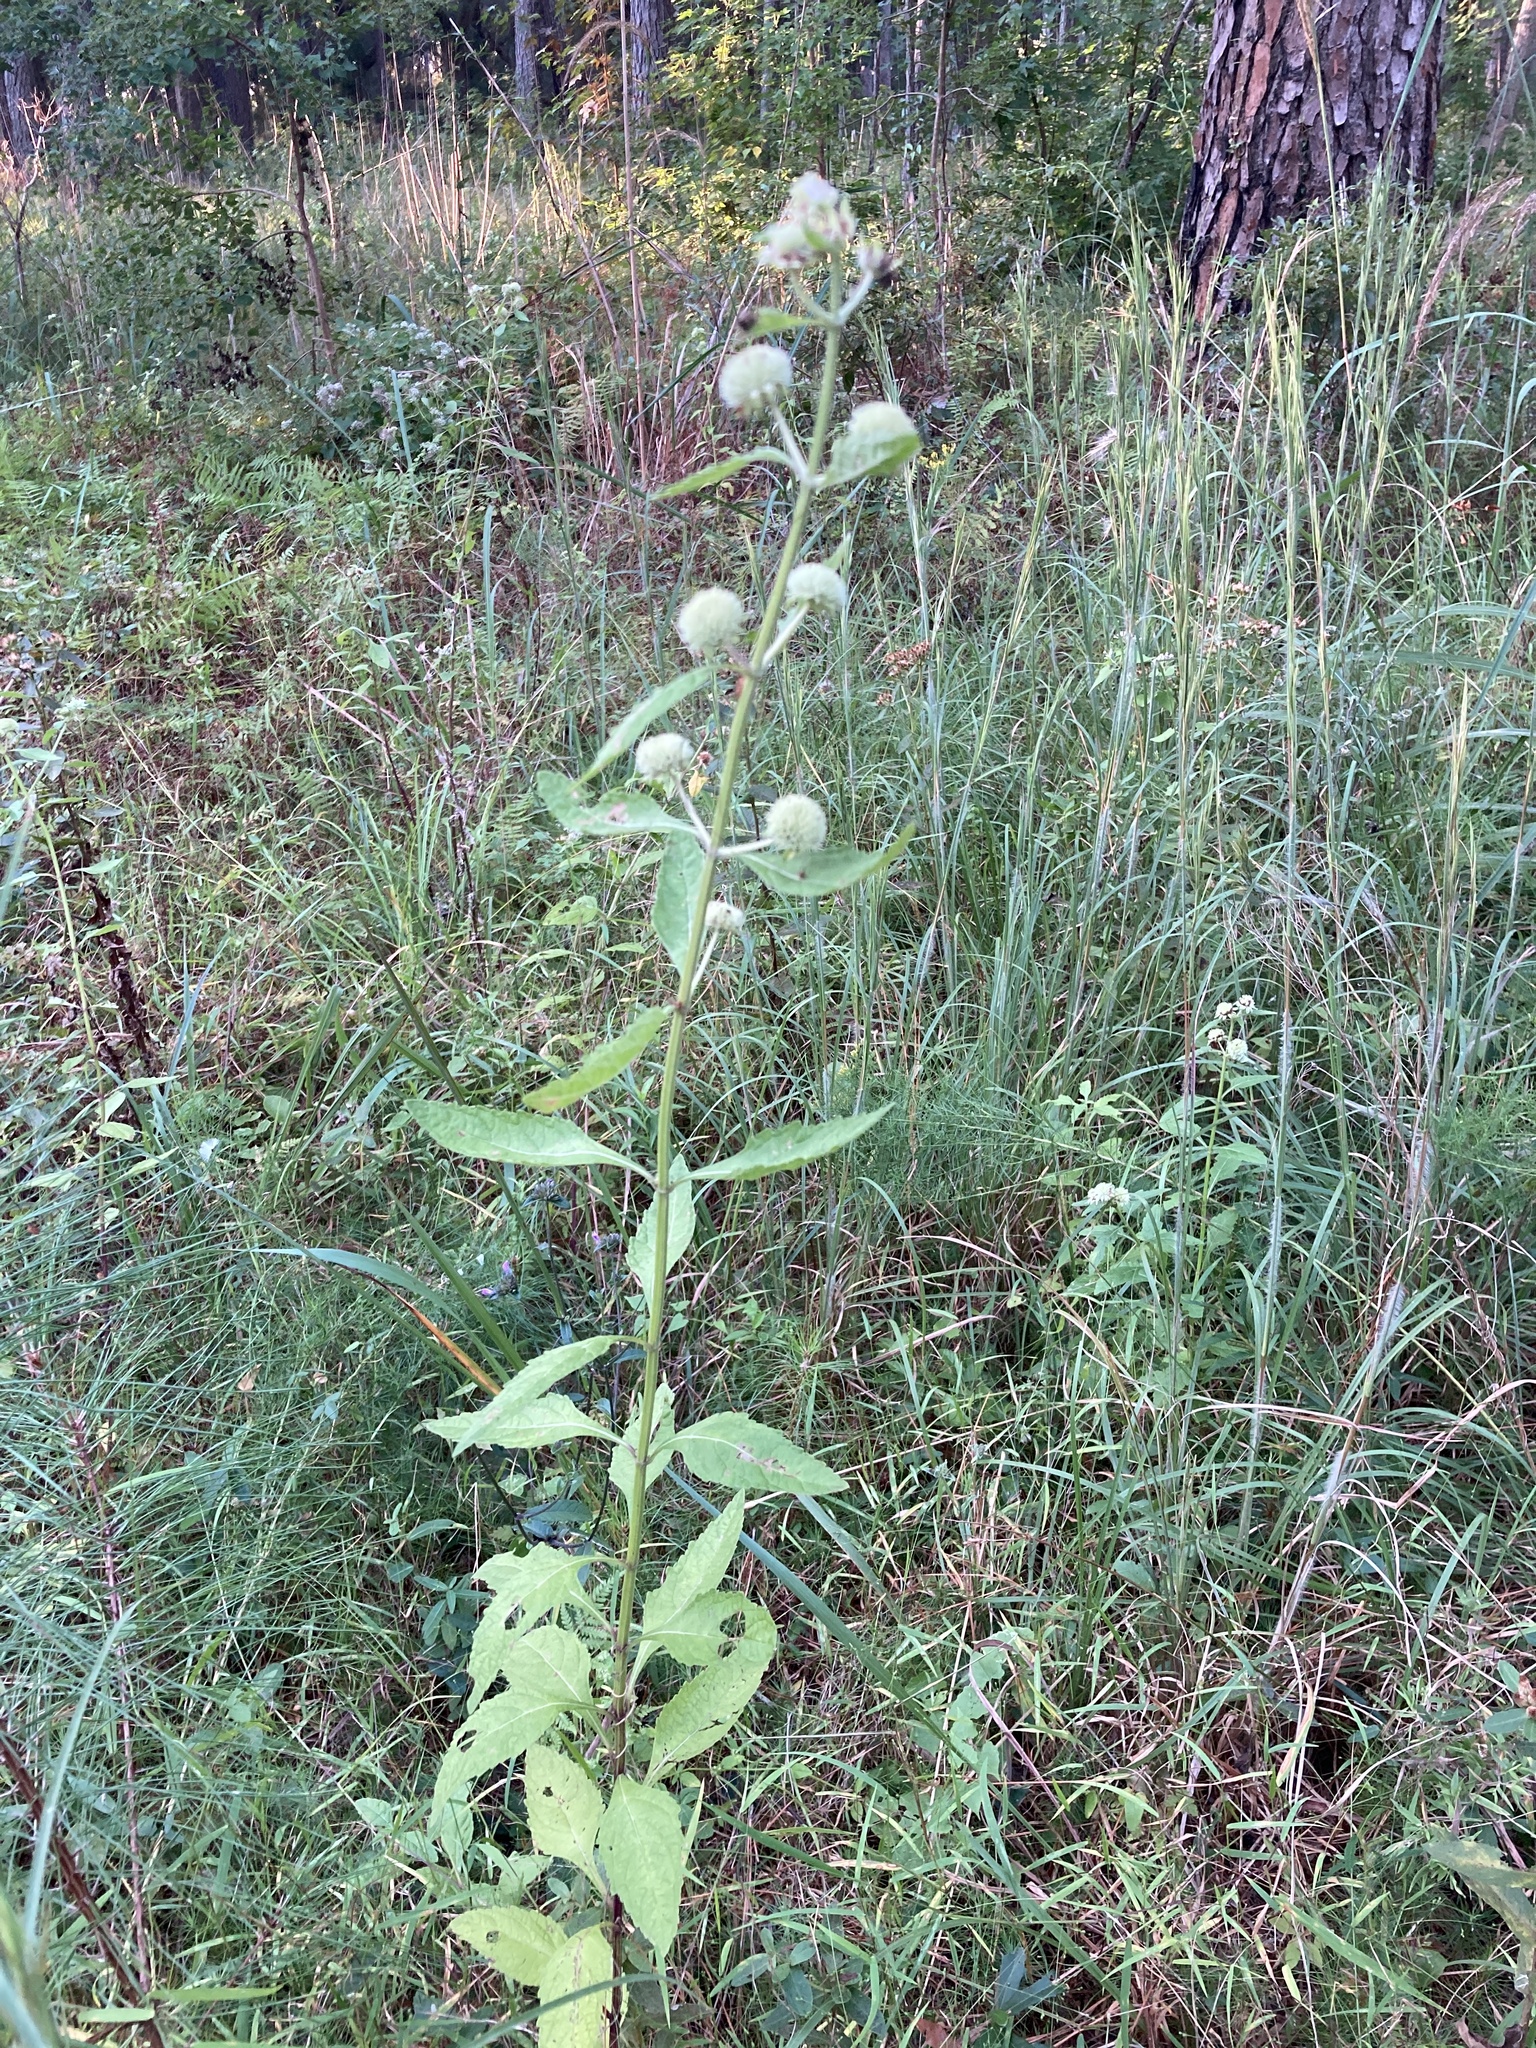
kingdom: Plantae
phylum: Tracheophyta
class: Magnoliopsida
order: Lamiales
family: Lamiaceae
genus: Hyptis
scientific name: Hyptis alata
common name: Cluster bush-mint
